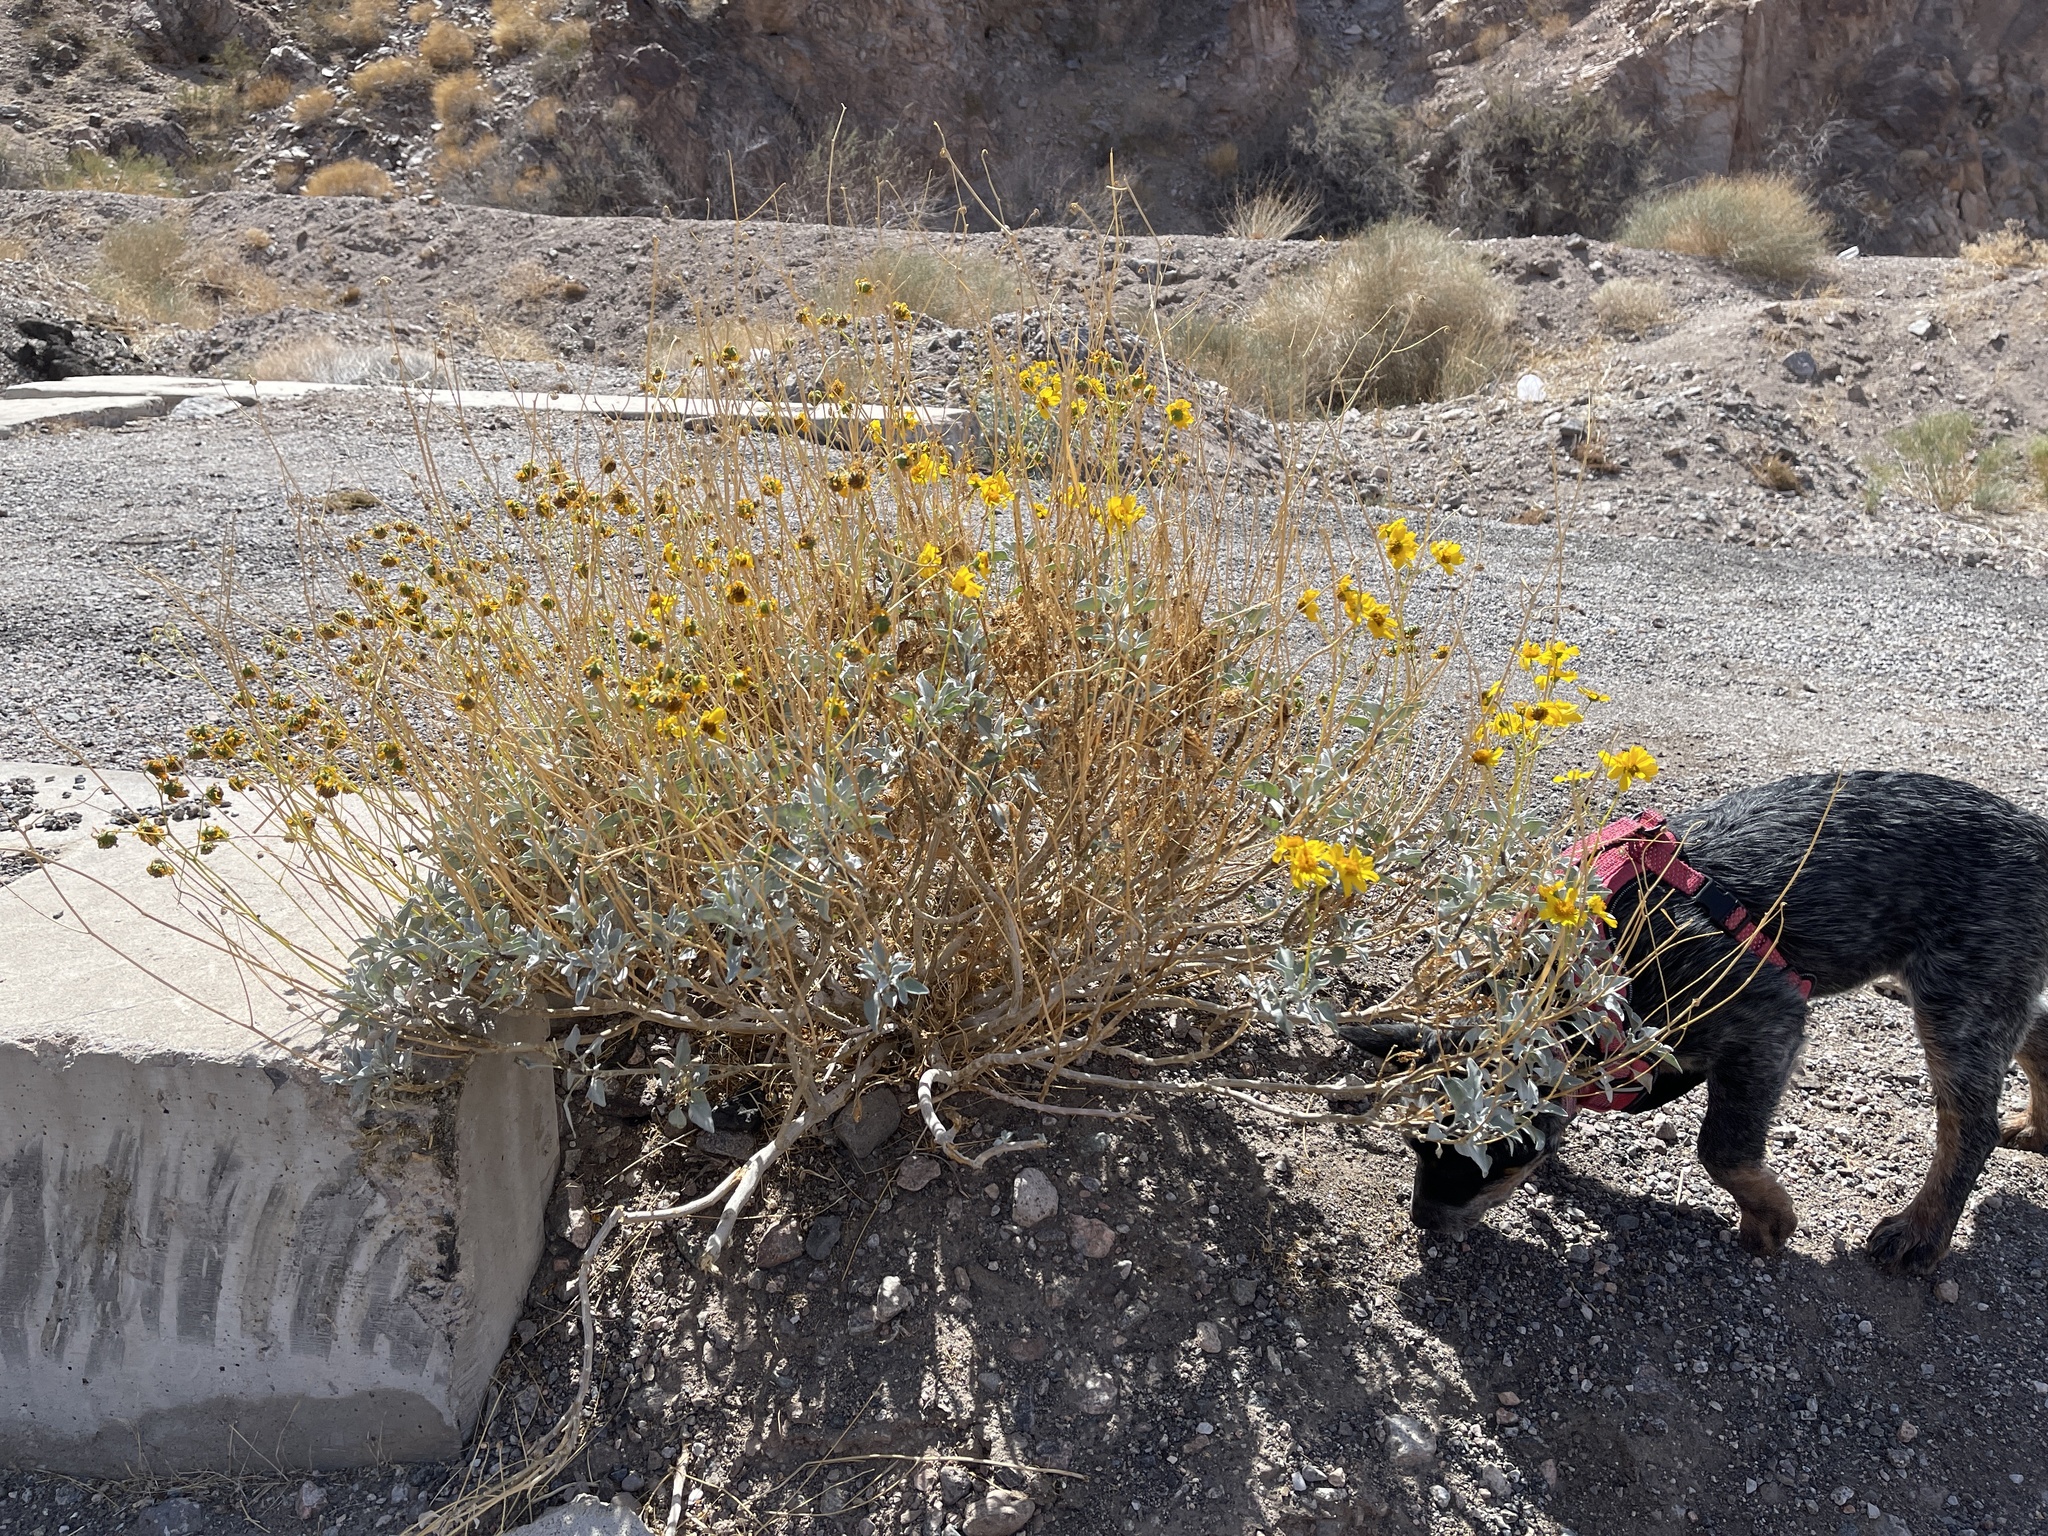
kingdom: Plantae
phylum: Tracheophyta
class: Magnoliopsida
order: Asterales
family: Asteraceae
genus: Encelia
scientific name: Encelia farinosa
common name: Brittlebush
